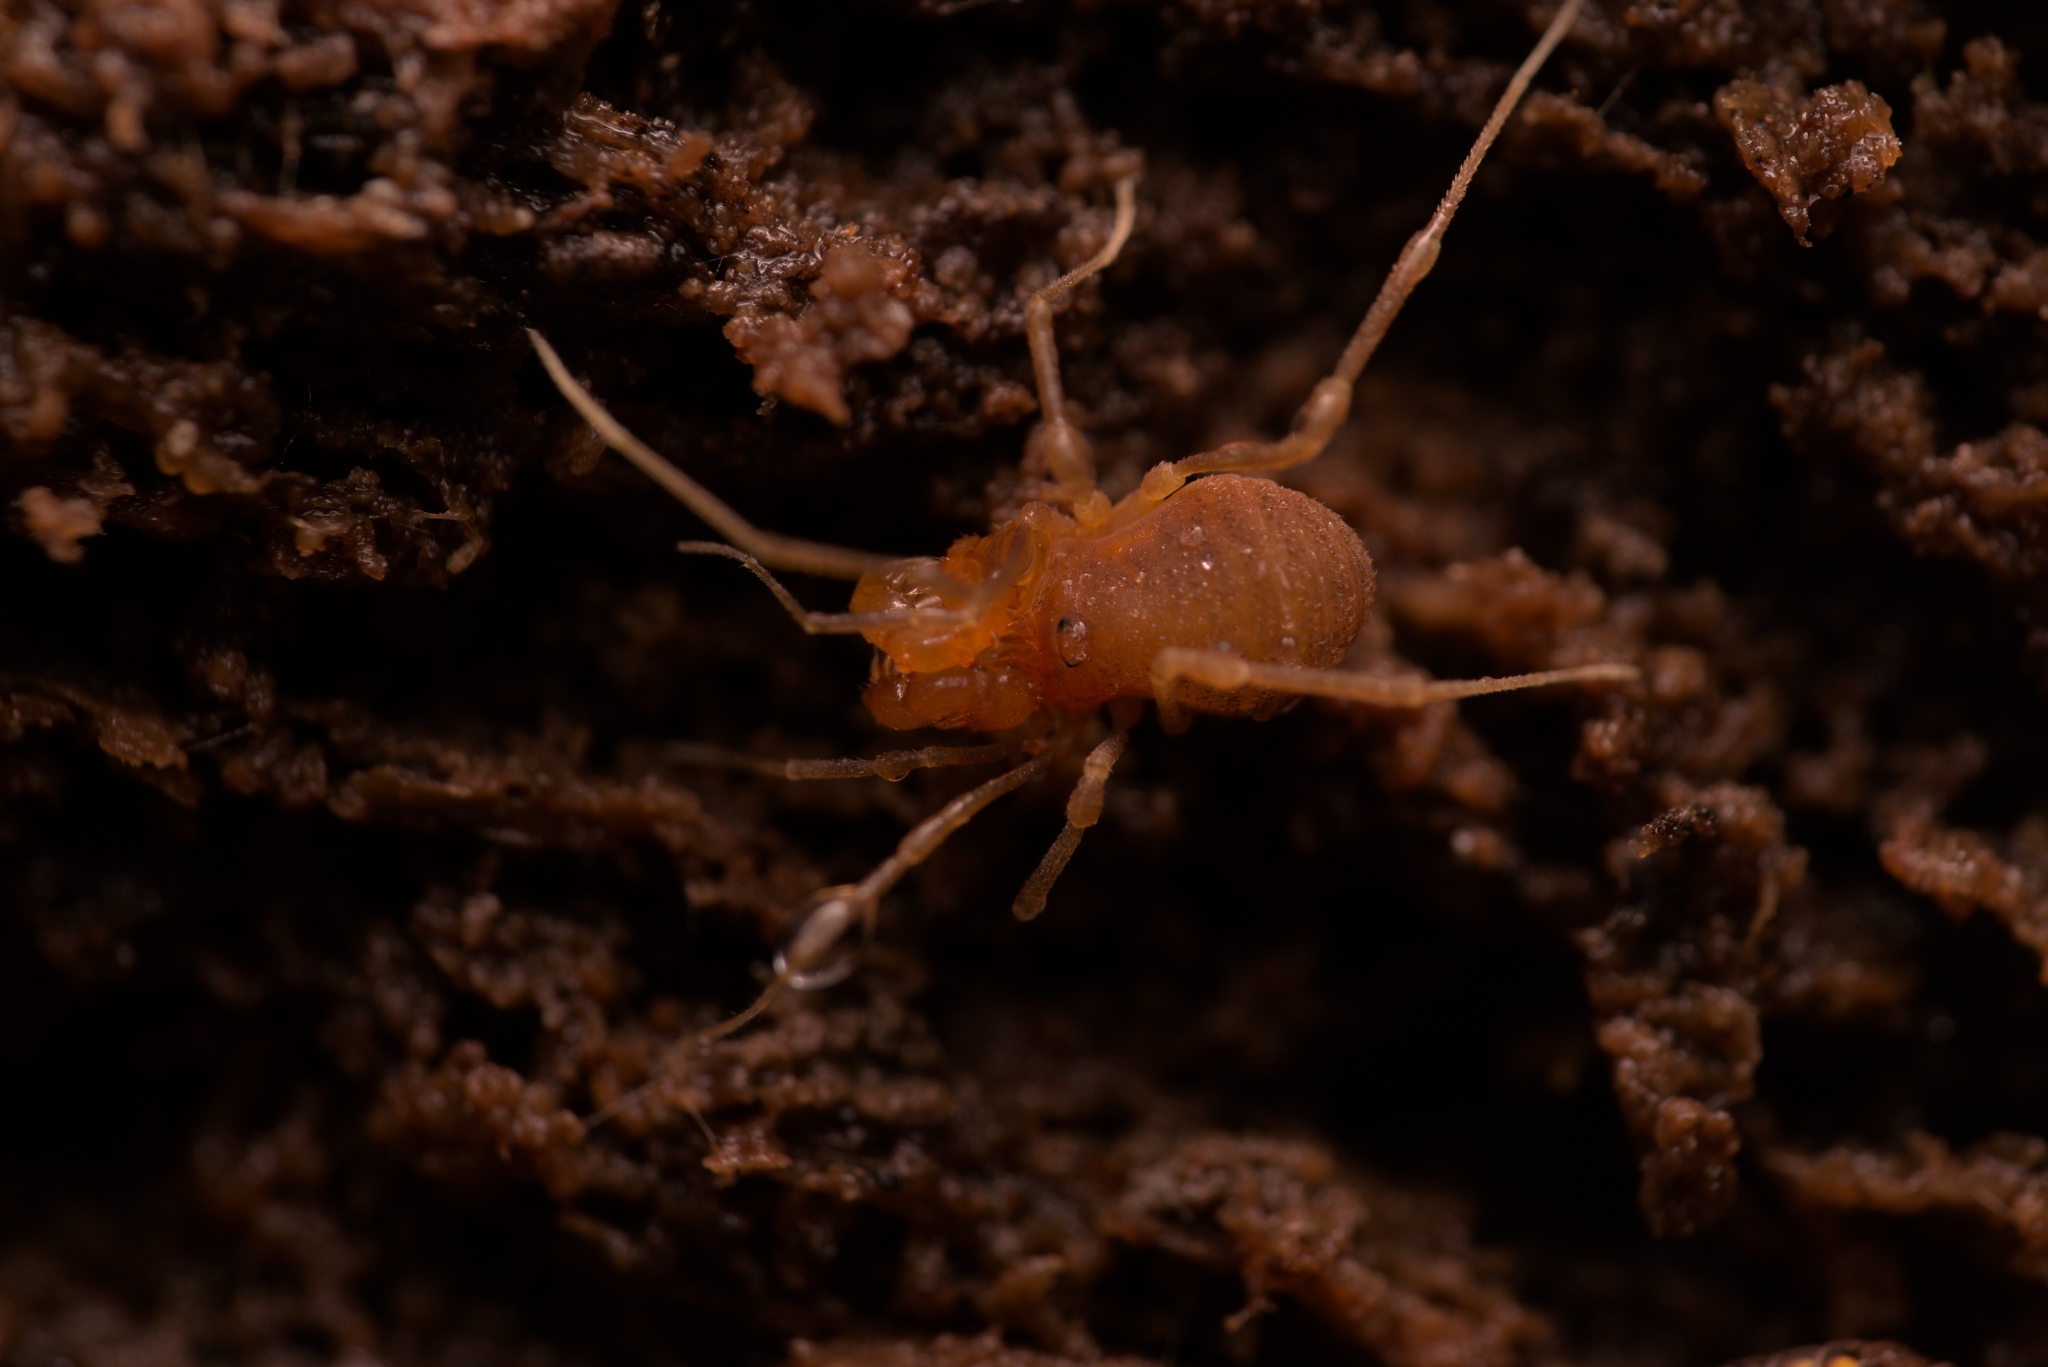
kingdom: Animalia
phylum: Arthropoda
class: Arachnida
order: Opiliones
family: Cladonychiidae
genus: Holoscotolemon
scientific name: Holoscotolemon querilhaci
